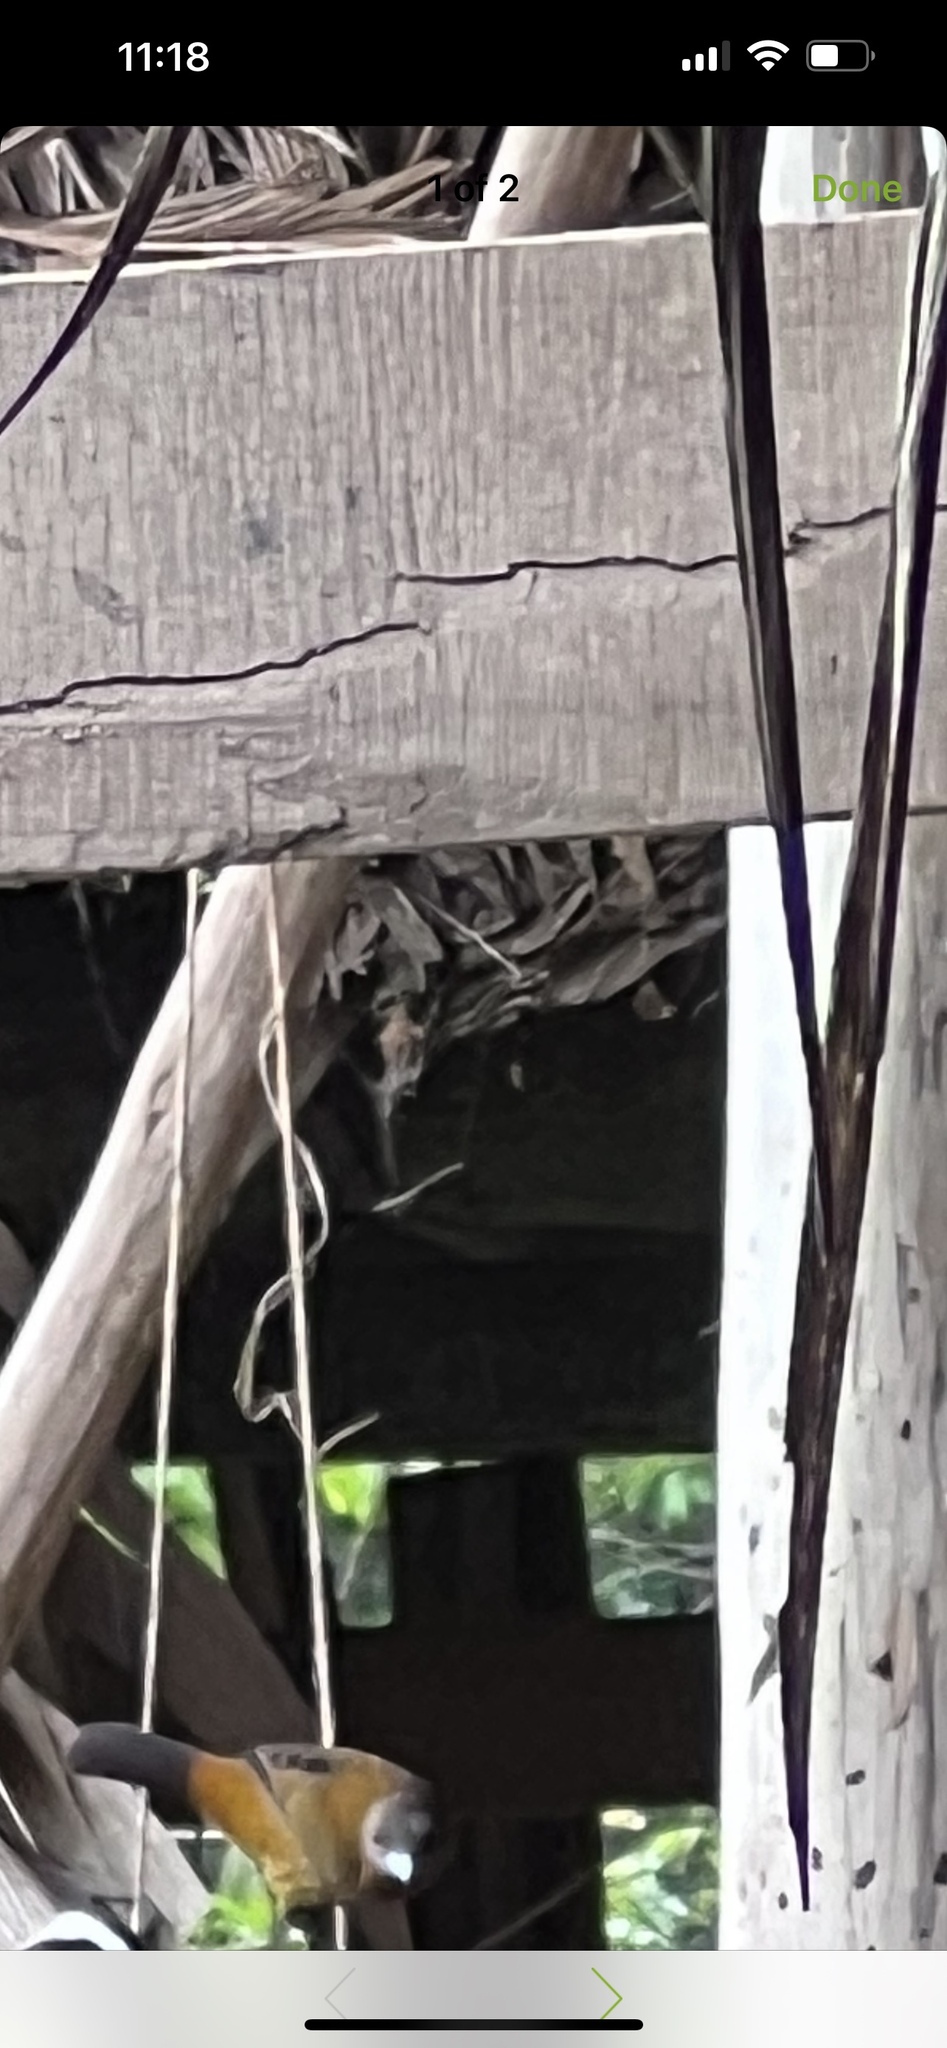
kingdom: Animalia
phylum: Chordata
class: Aves
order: Passeriformes
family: Thraupidae
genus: Ramphocelus
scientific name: Ramphocelus passerinii
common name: Passerini's tanager
